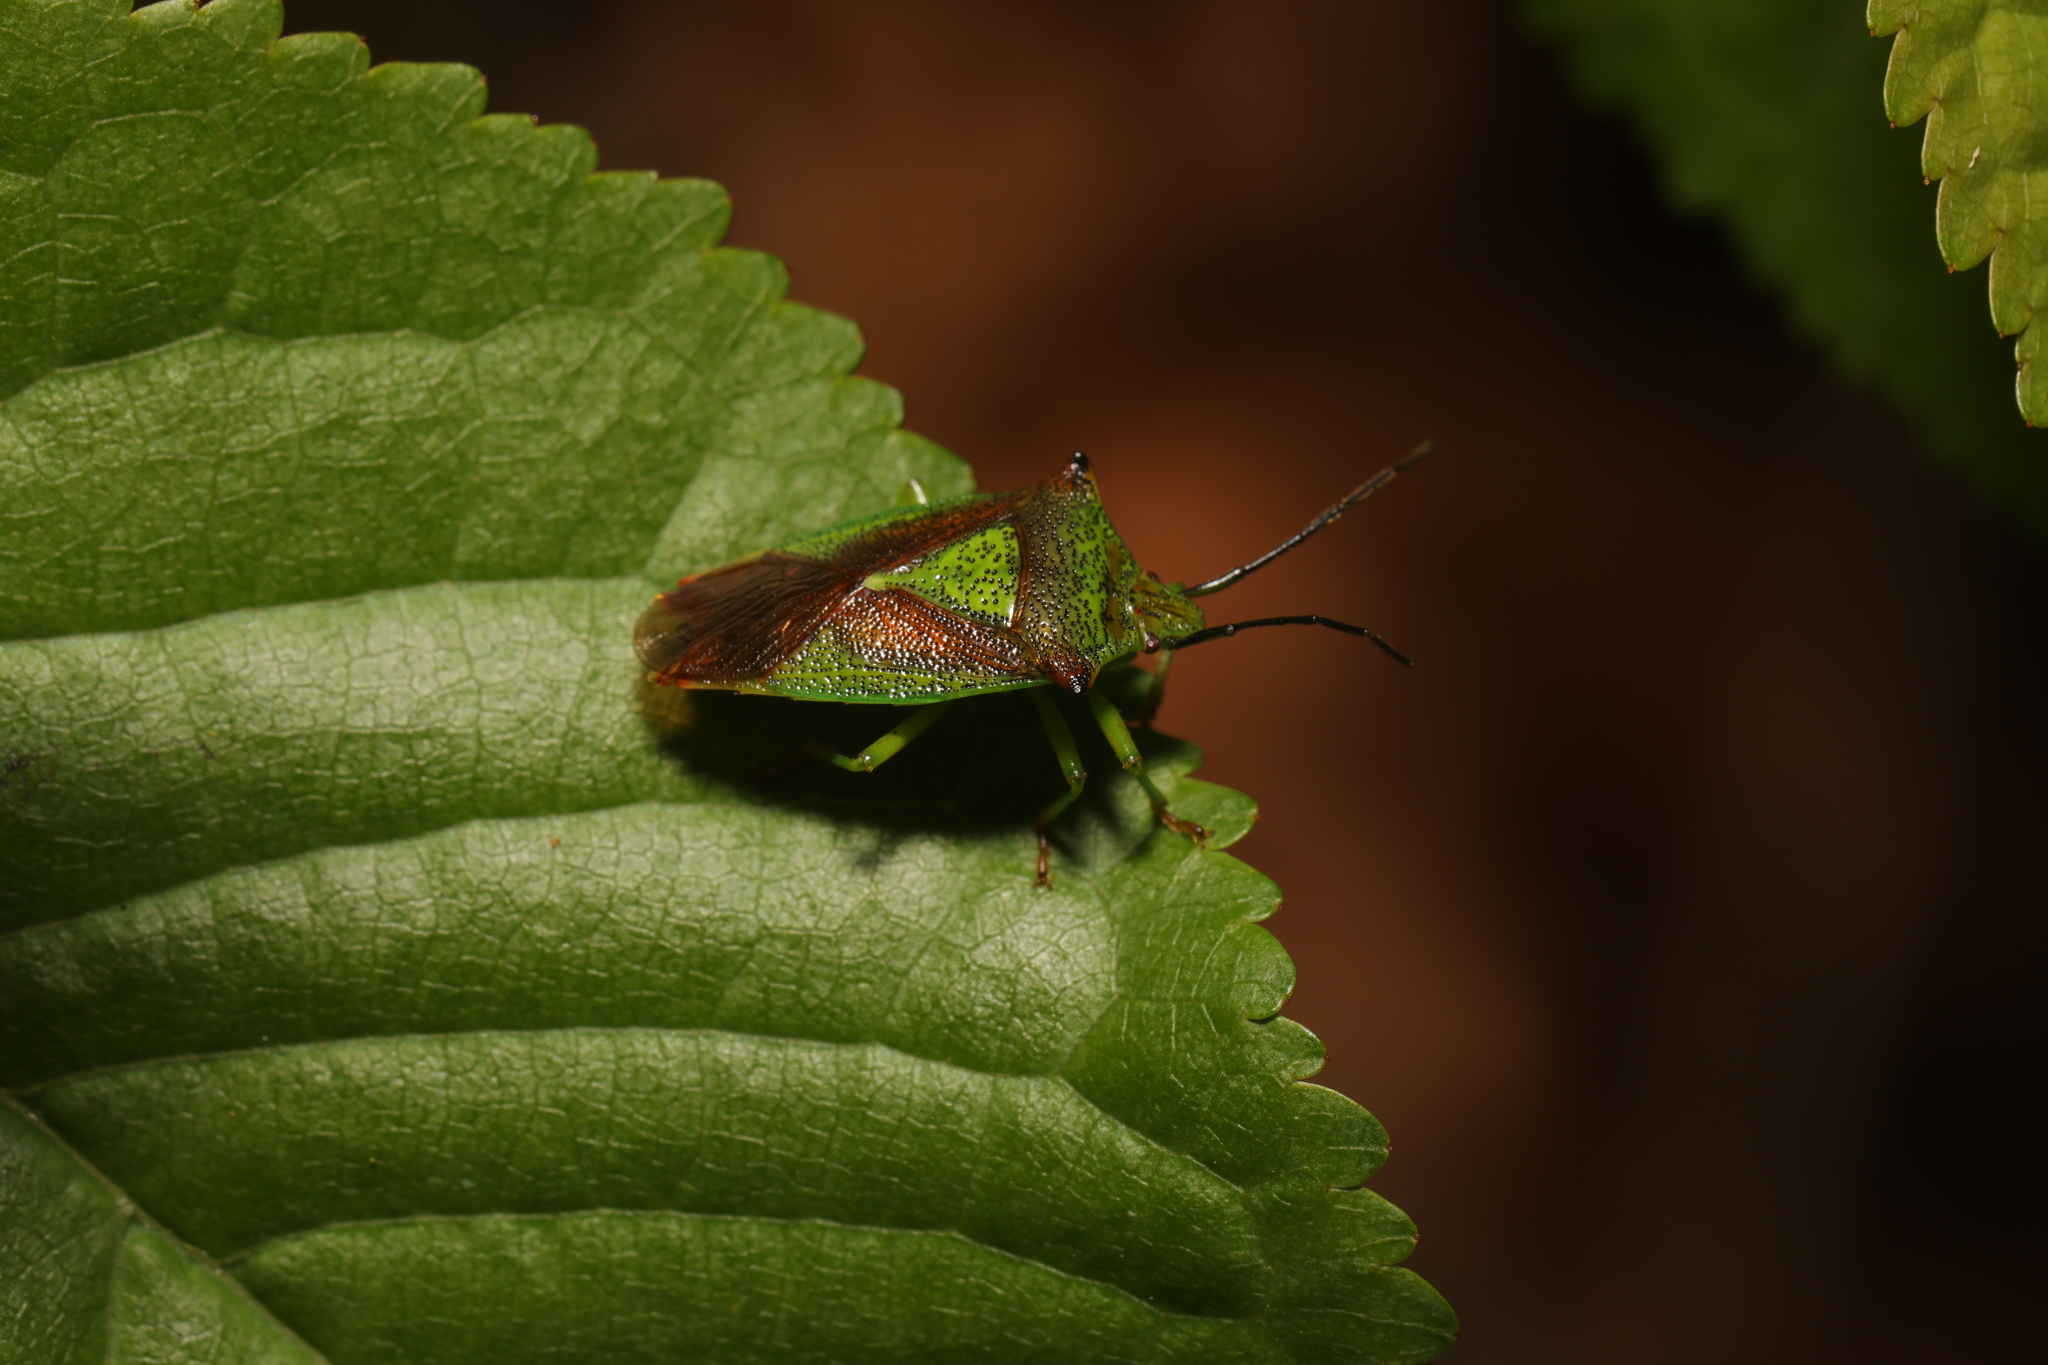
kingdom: Animalia
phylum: Arthropoda
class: Insecta
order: Hemiptera
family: Acanthosomatidae
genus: Acanthosoma
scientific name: Acanthosoma haemorrhoidale
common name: Hawthorn shieldbug
